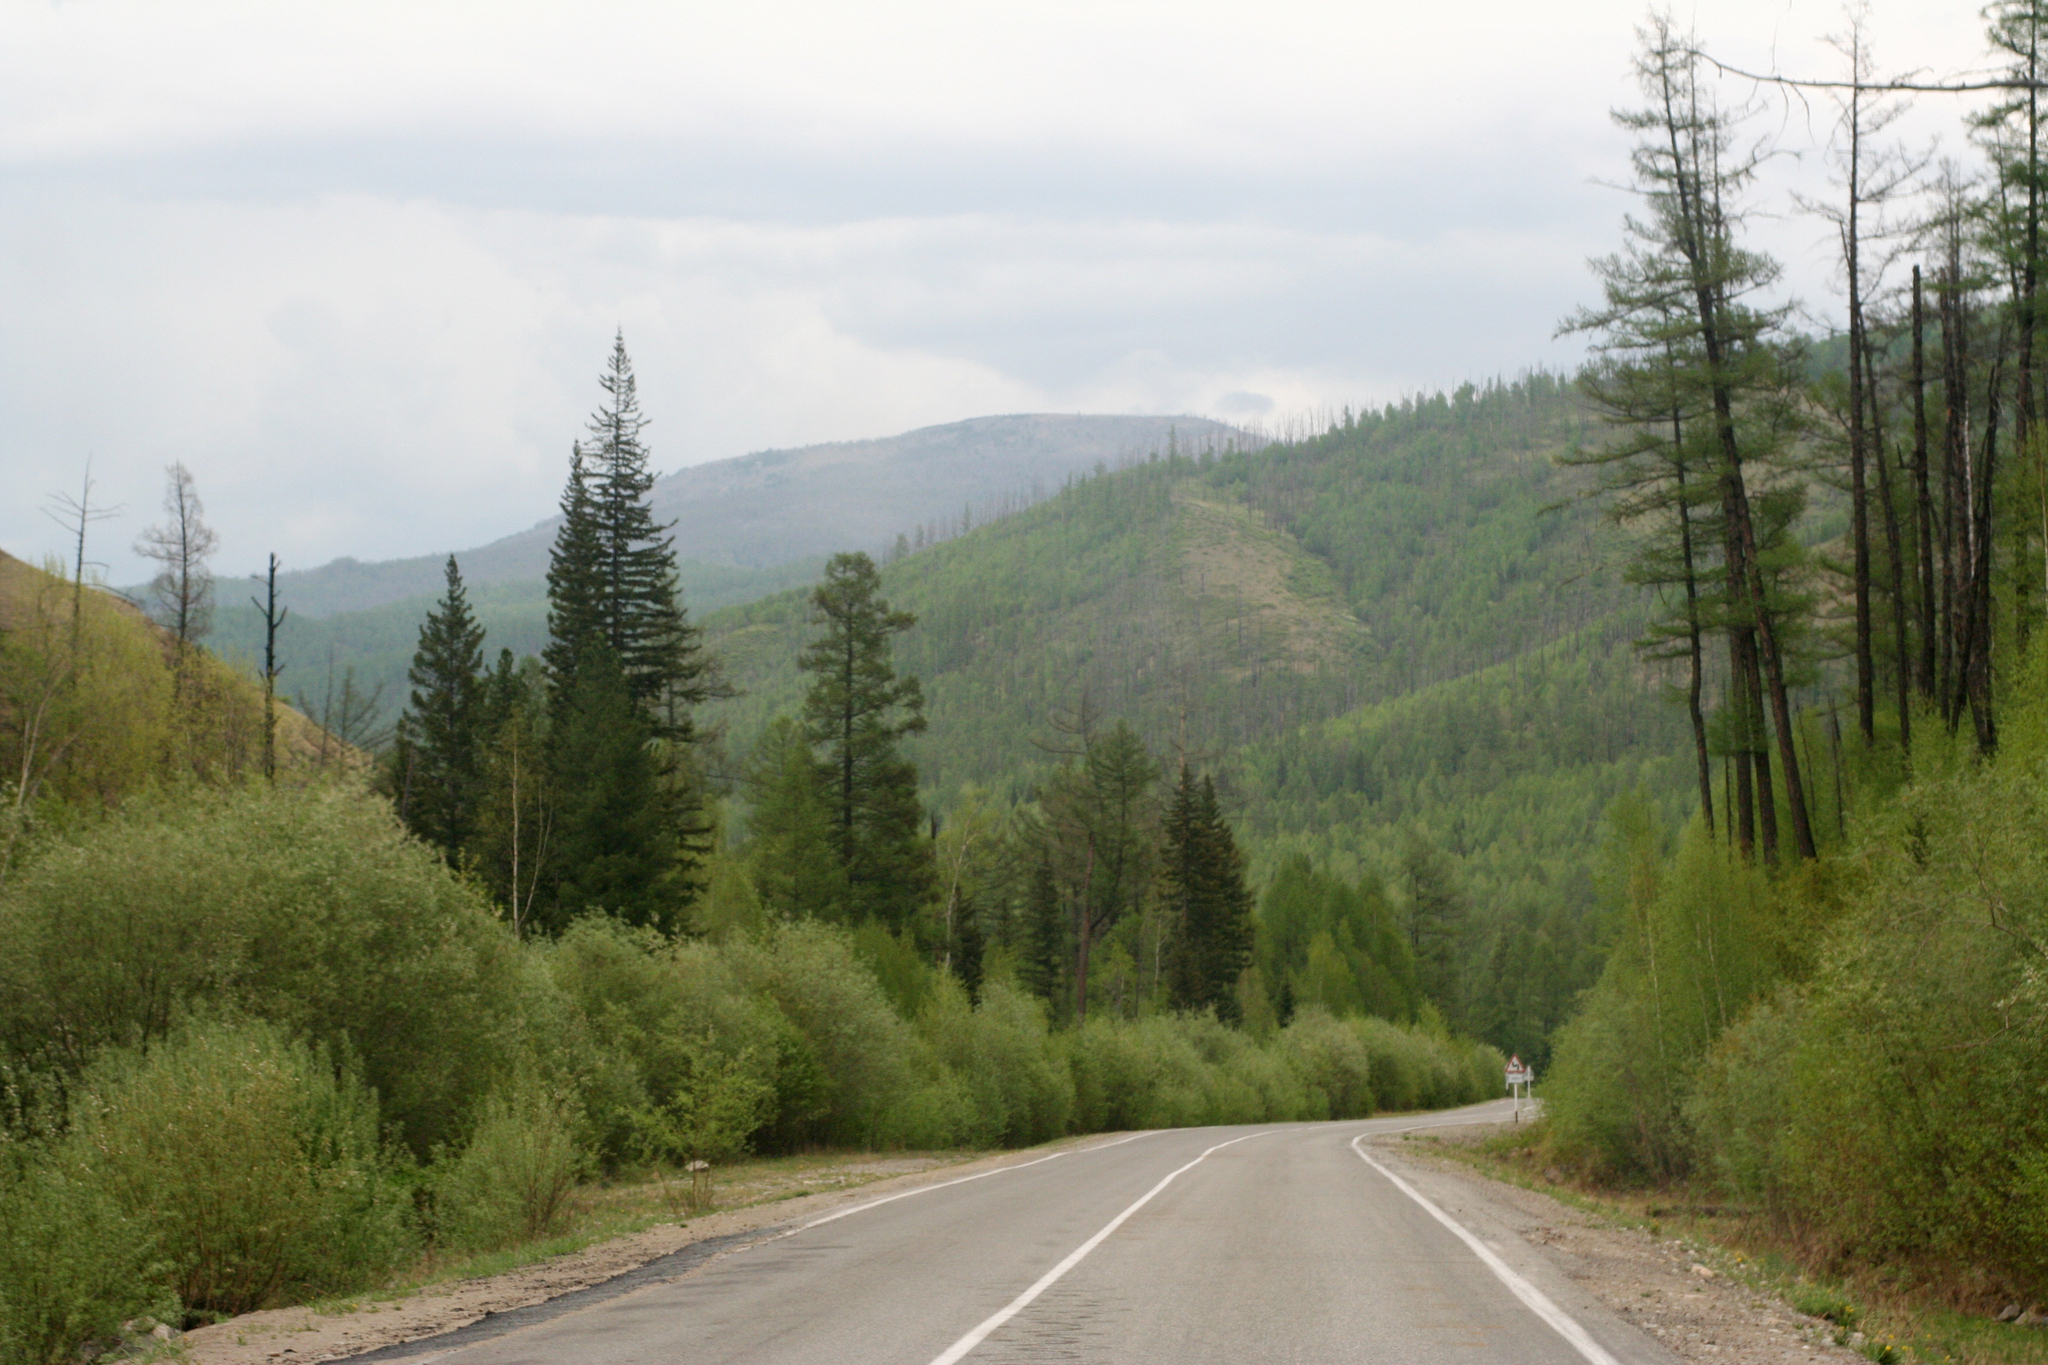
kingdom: Plantae
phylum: Tracheophyta
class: Pinopsida
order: Pinales
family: Pinaceae
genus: Picea
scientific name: Picea obovata
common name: Siberian spruce
